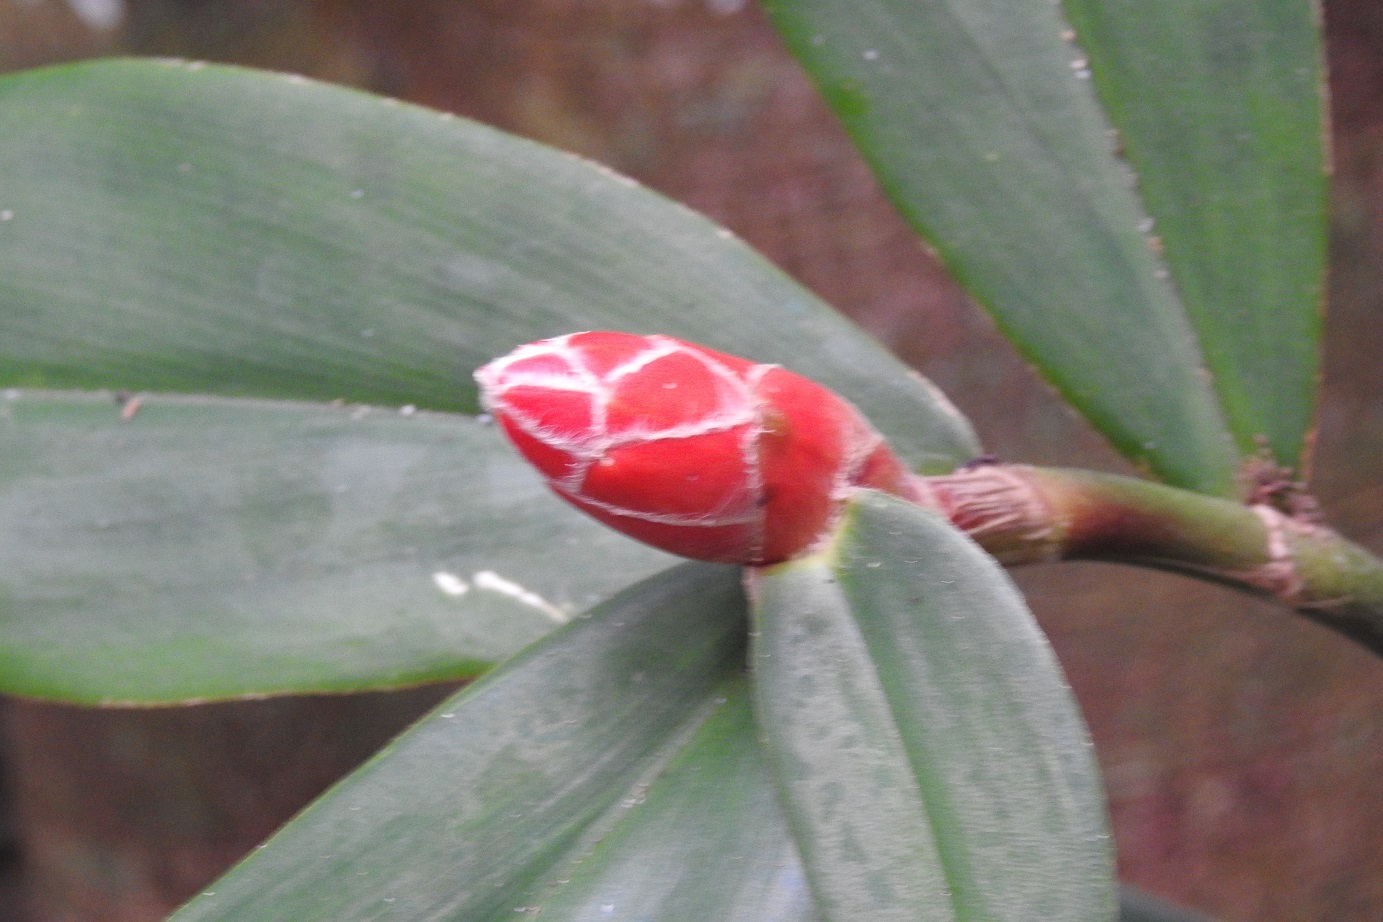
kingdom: Plantae
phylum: Tracheophyta
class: Liliopsida
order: Zingiberales
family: Costaceae
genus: Costus
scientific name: Costus pulverulentus
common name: Spiral ginger
